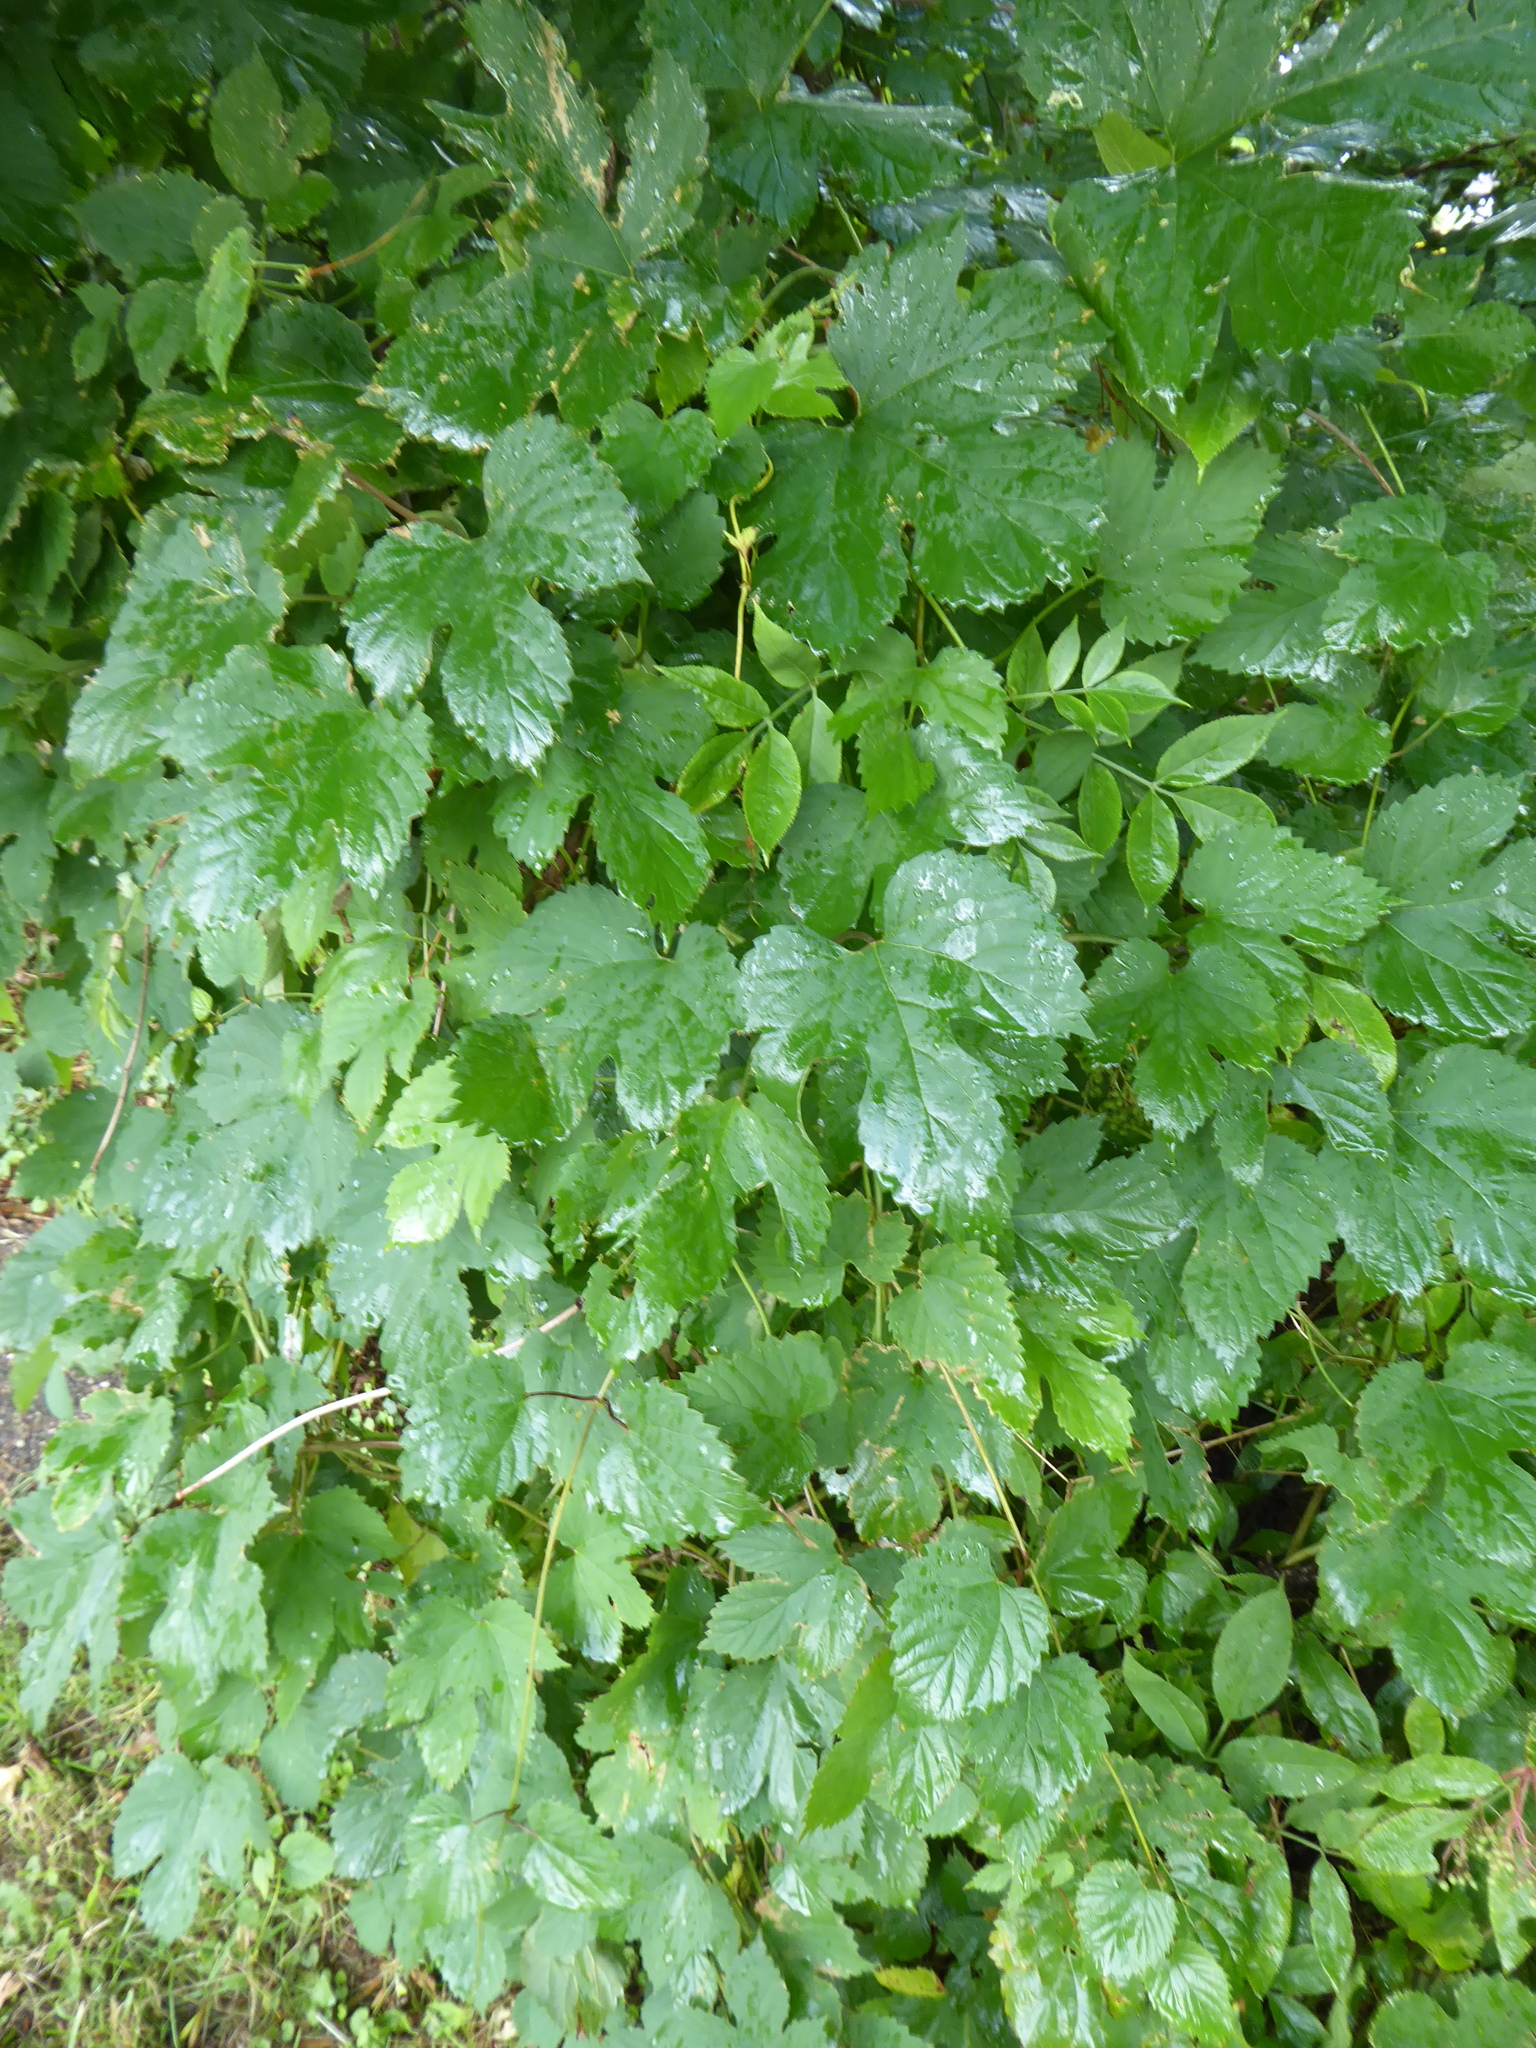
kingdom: Plantae
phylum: Tracheophyta
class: Magnoliopsida
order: Rosales
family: Cannabaceae
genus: Humulus
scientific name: Humulus lupulus
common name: Hop
